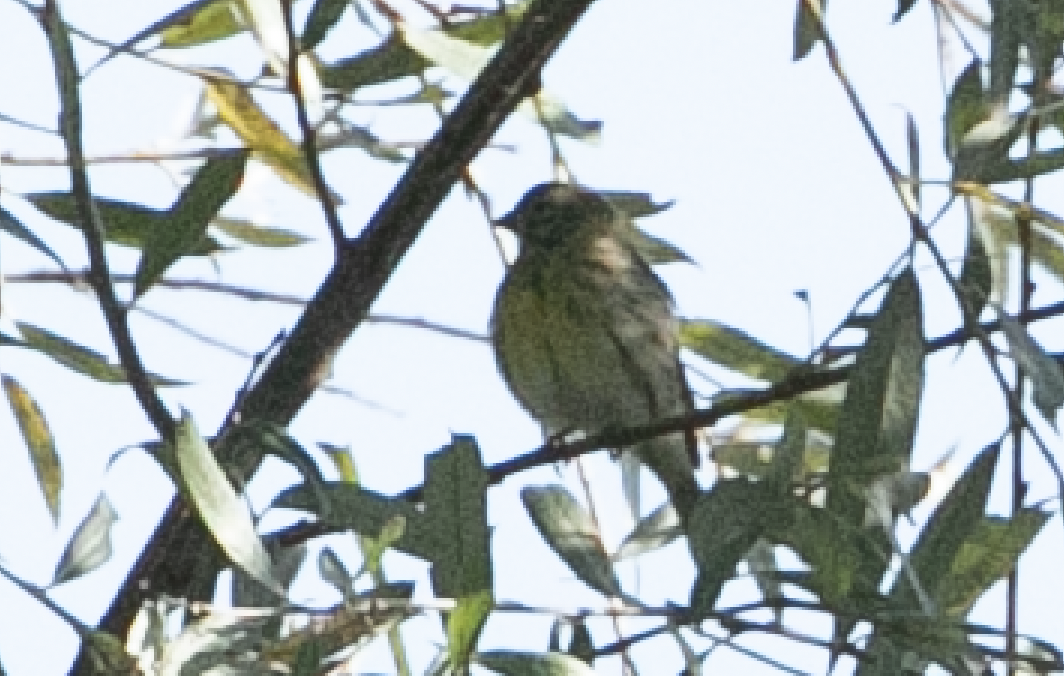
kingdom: Animalia
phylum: Chordata
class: Aves
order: Passeriformes
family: Fringillidae
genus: Serinus
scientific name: Serinus serinus
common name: European serin
